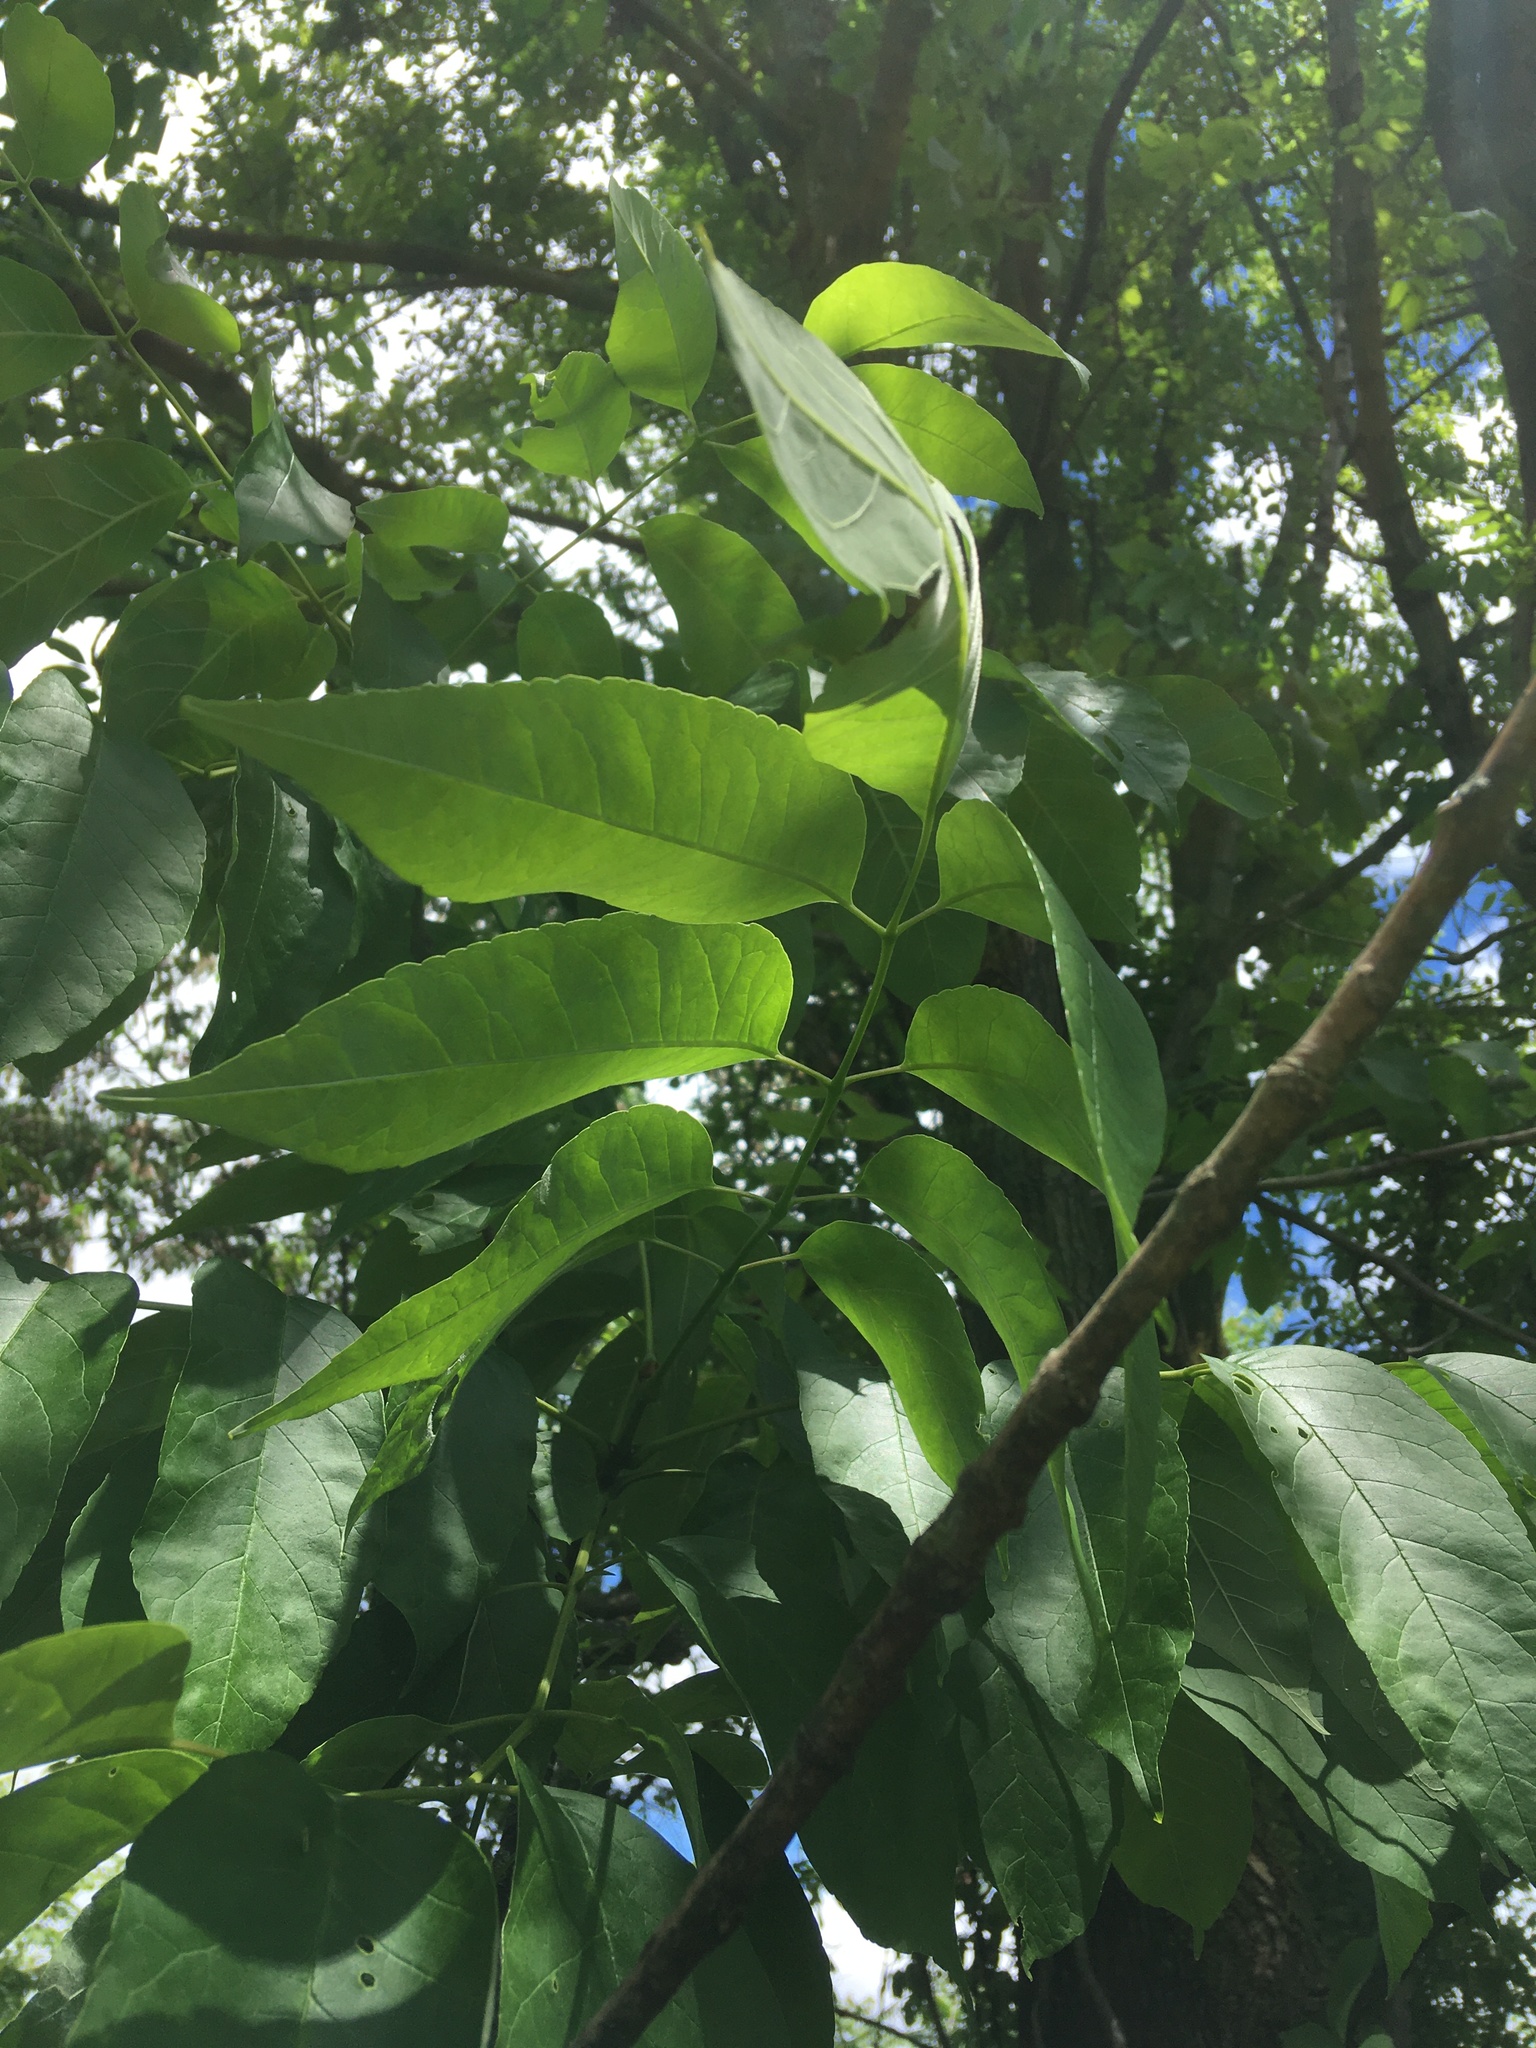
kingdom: Plantae
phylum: Tracheophyta
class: Magnoliopsida
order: Lamiales
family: Oleaceae
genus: Fraxinus
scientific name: Fraxinus americana
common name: White ash
